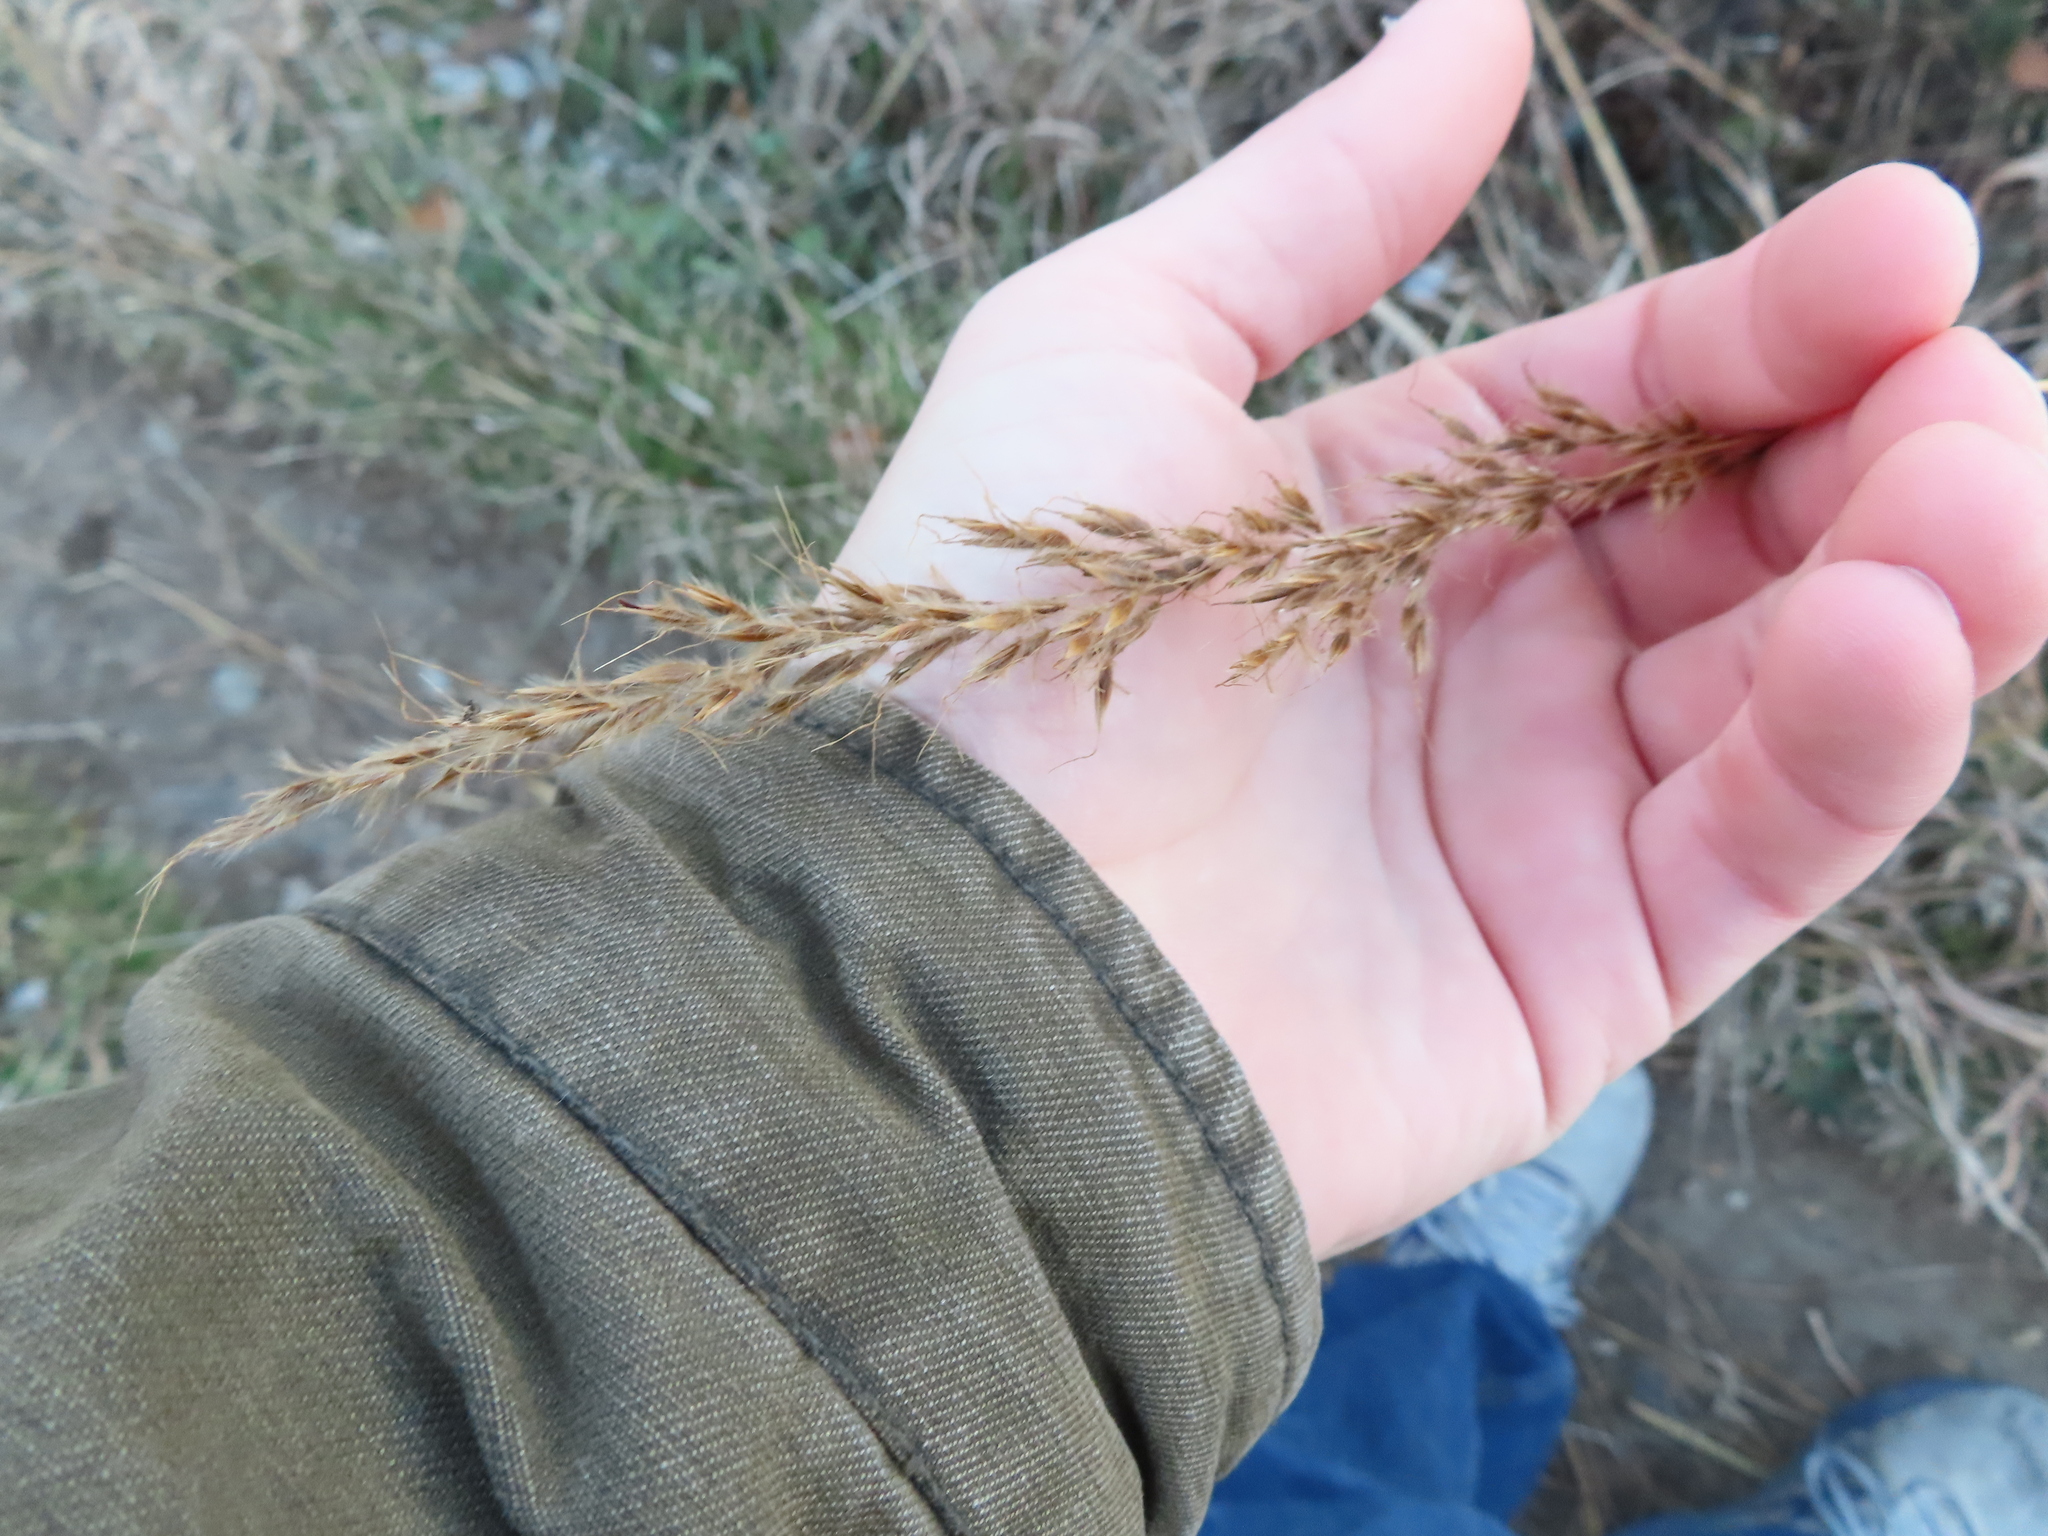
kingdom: Plantae
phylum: Tracheophyta
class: Liliopsida
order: Poales
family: Poaceae
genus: Sorghastrum
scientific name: Sorghastrum nutans
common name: Indian grass
